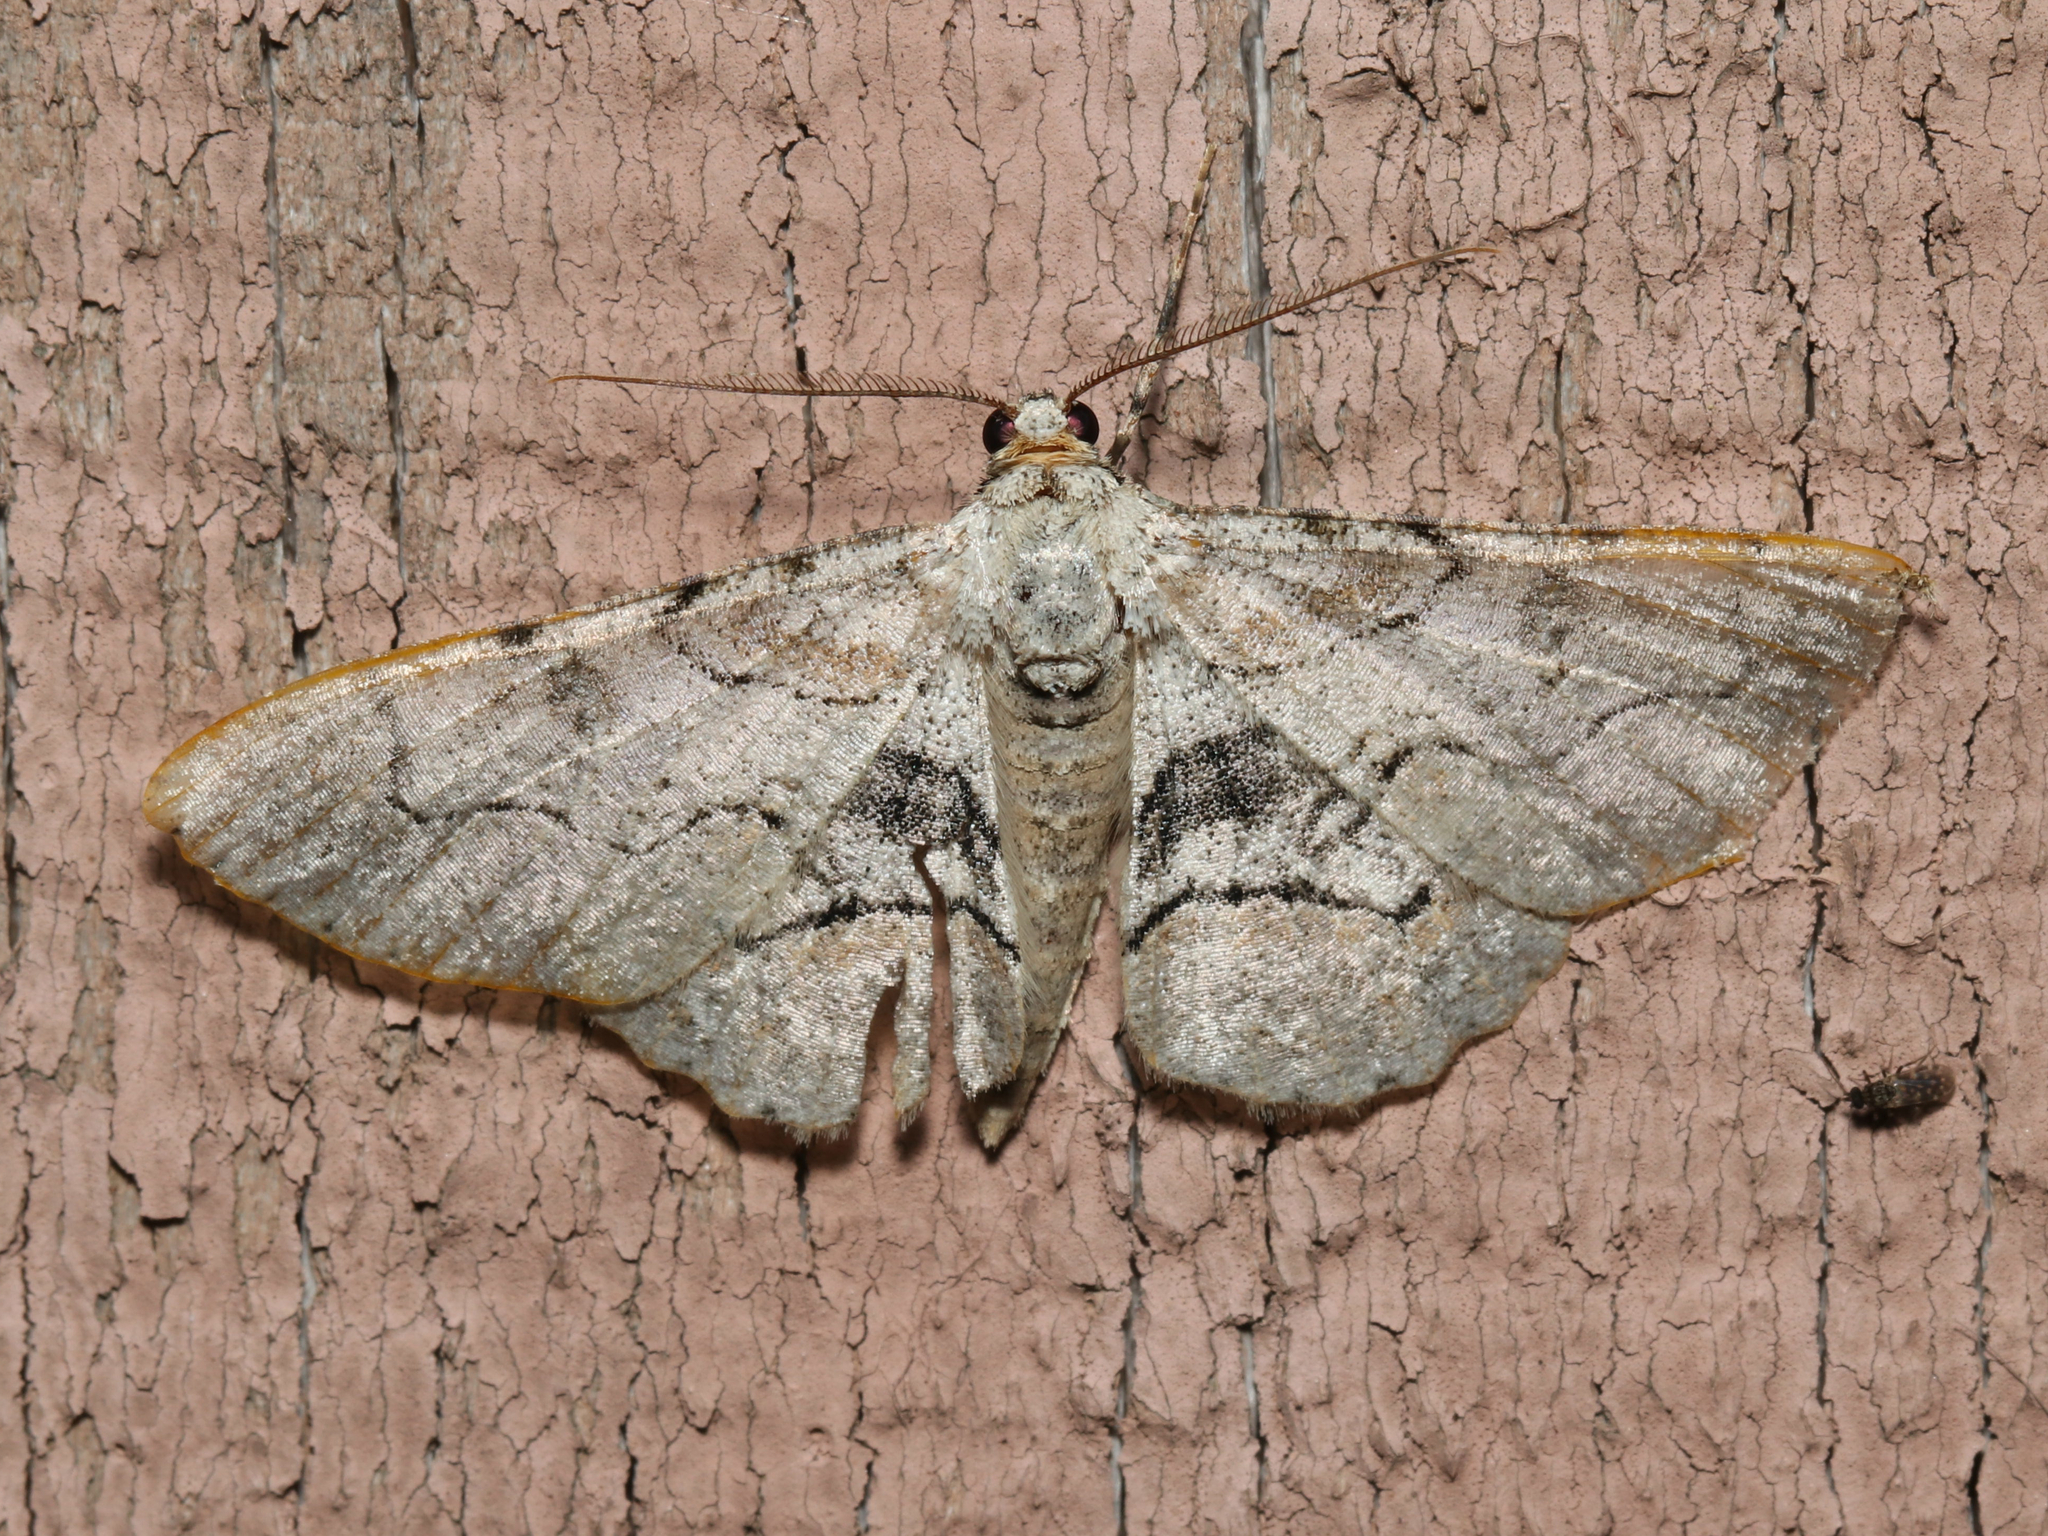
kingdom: Animalia
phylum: Arthropoda
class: Insecta
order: Lepidoptera
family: Geometridae
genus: Iridopsis
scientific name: Iridopsis larvaria
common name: Bent-line gray
